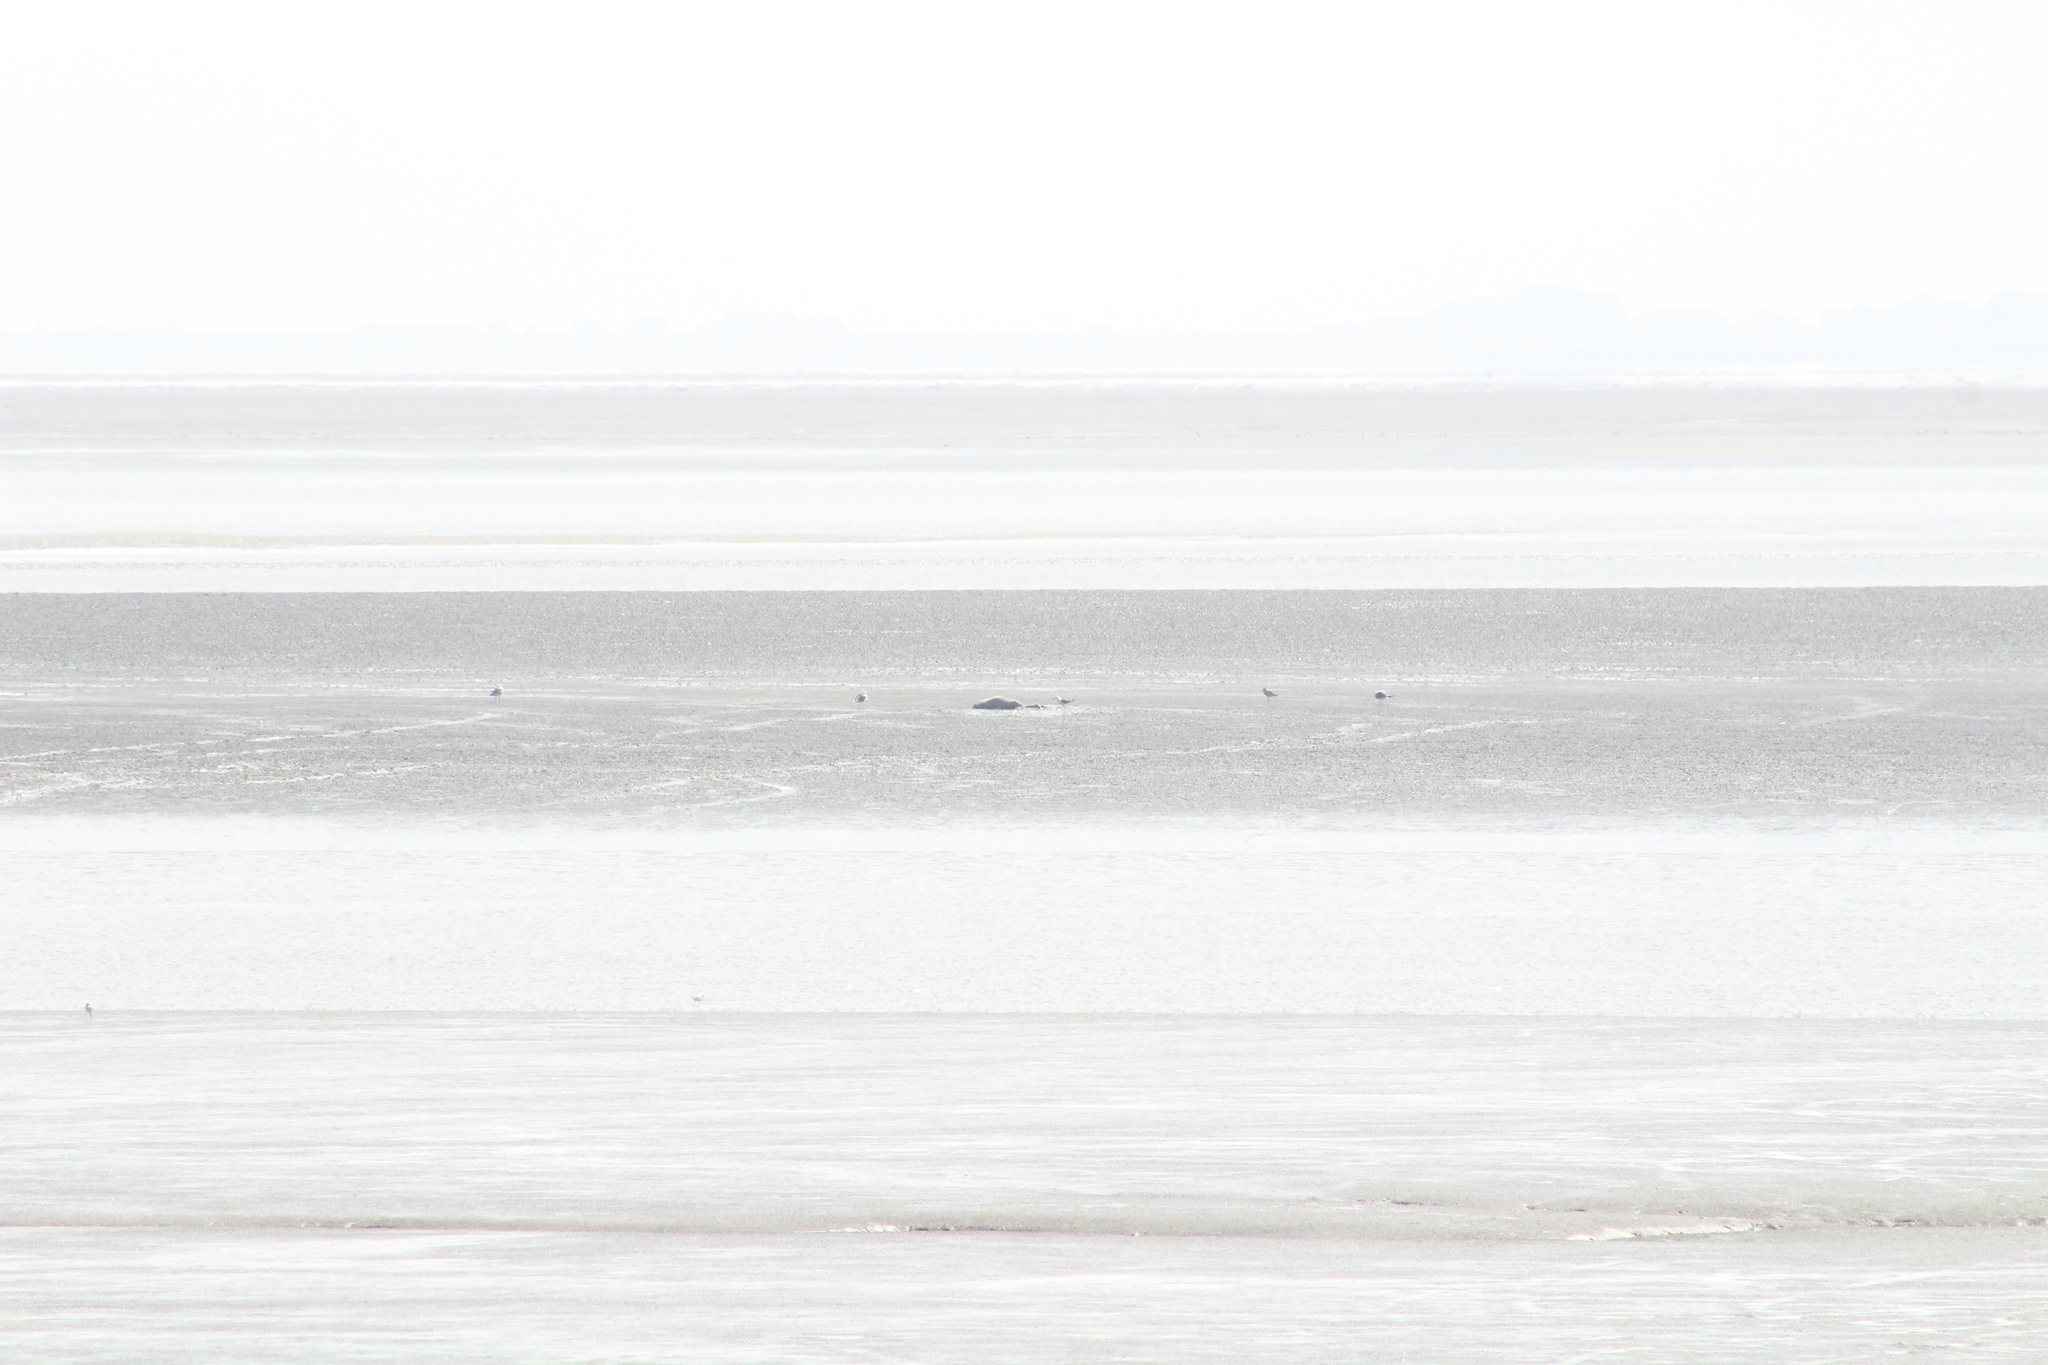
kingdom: Animalia
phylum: Chordata
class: Mammalia
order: Carnivora
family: Phocidae
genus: Phoca
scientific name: Phoca vitulina
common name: Harbor seal
